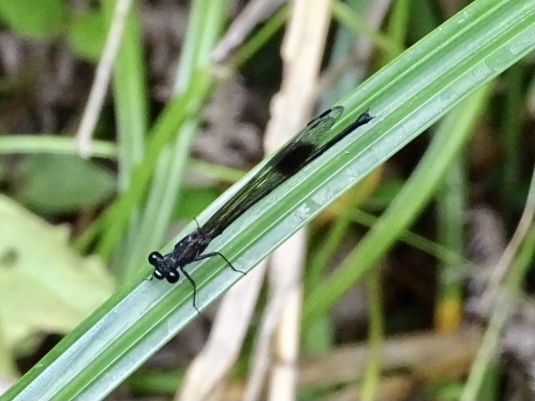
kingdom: Animalia
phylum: Arthropoda
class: Insecta
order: Odonata
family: Euphaeidae
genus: Euphaea
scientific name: Euphaea decorata
